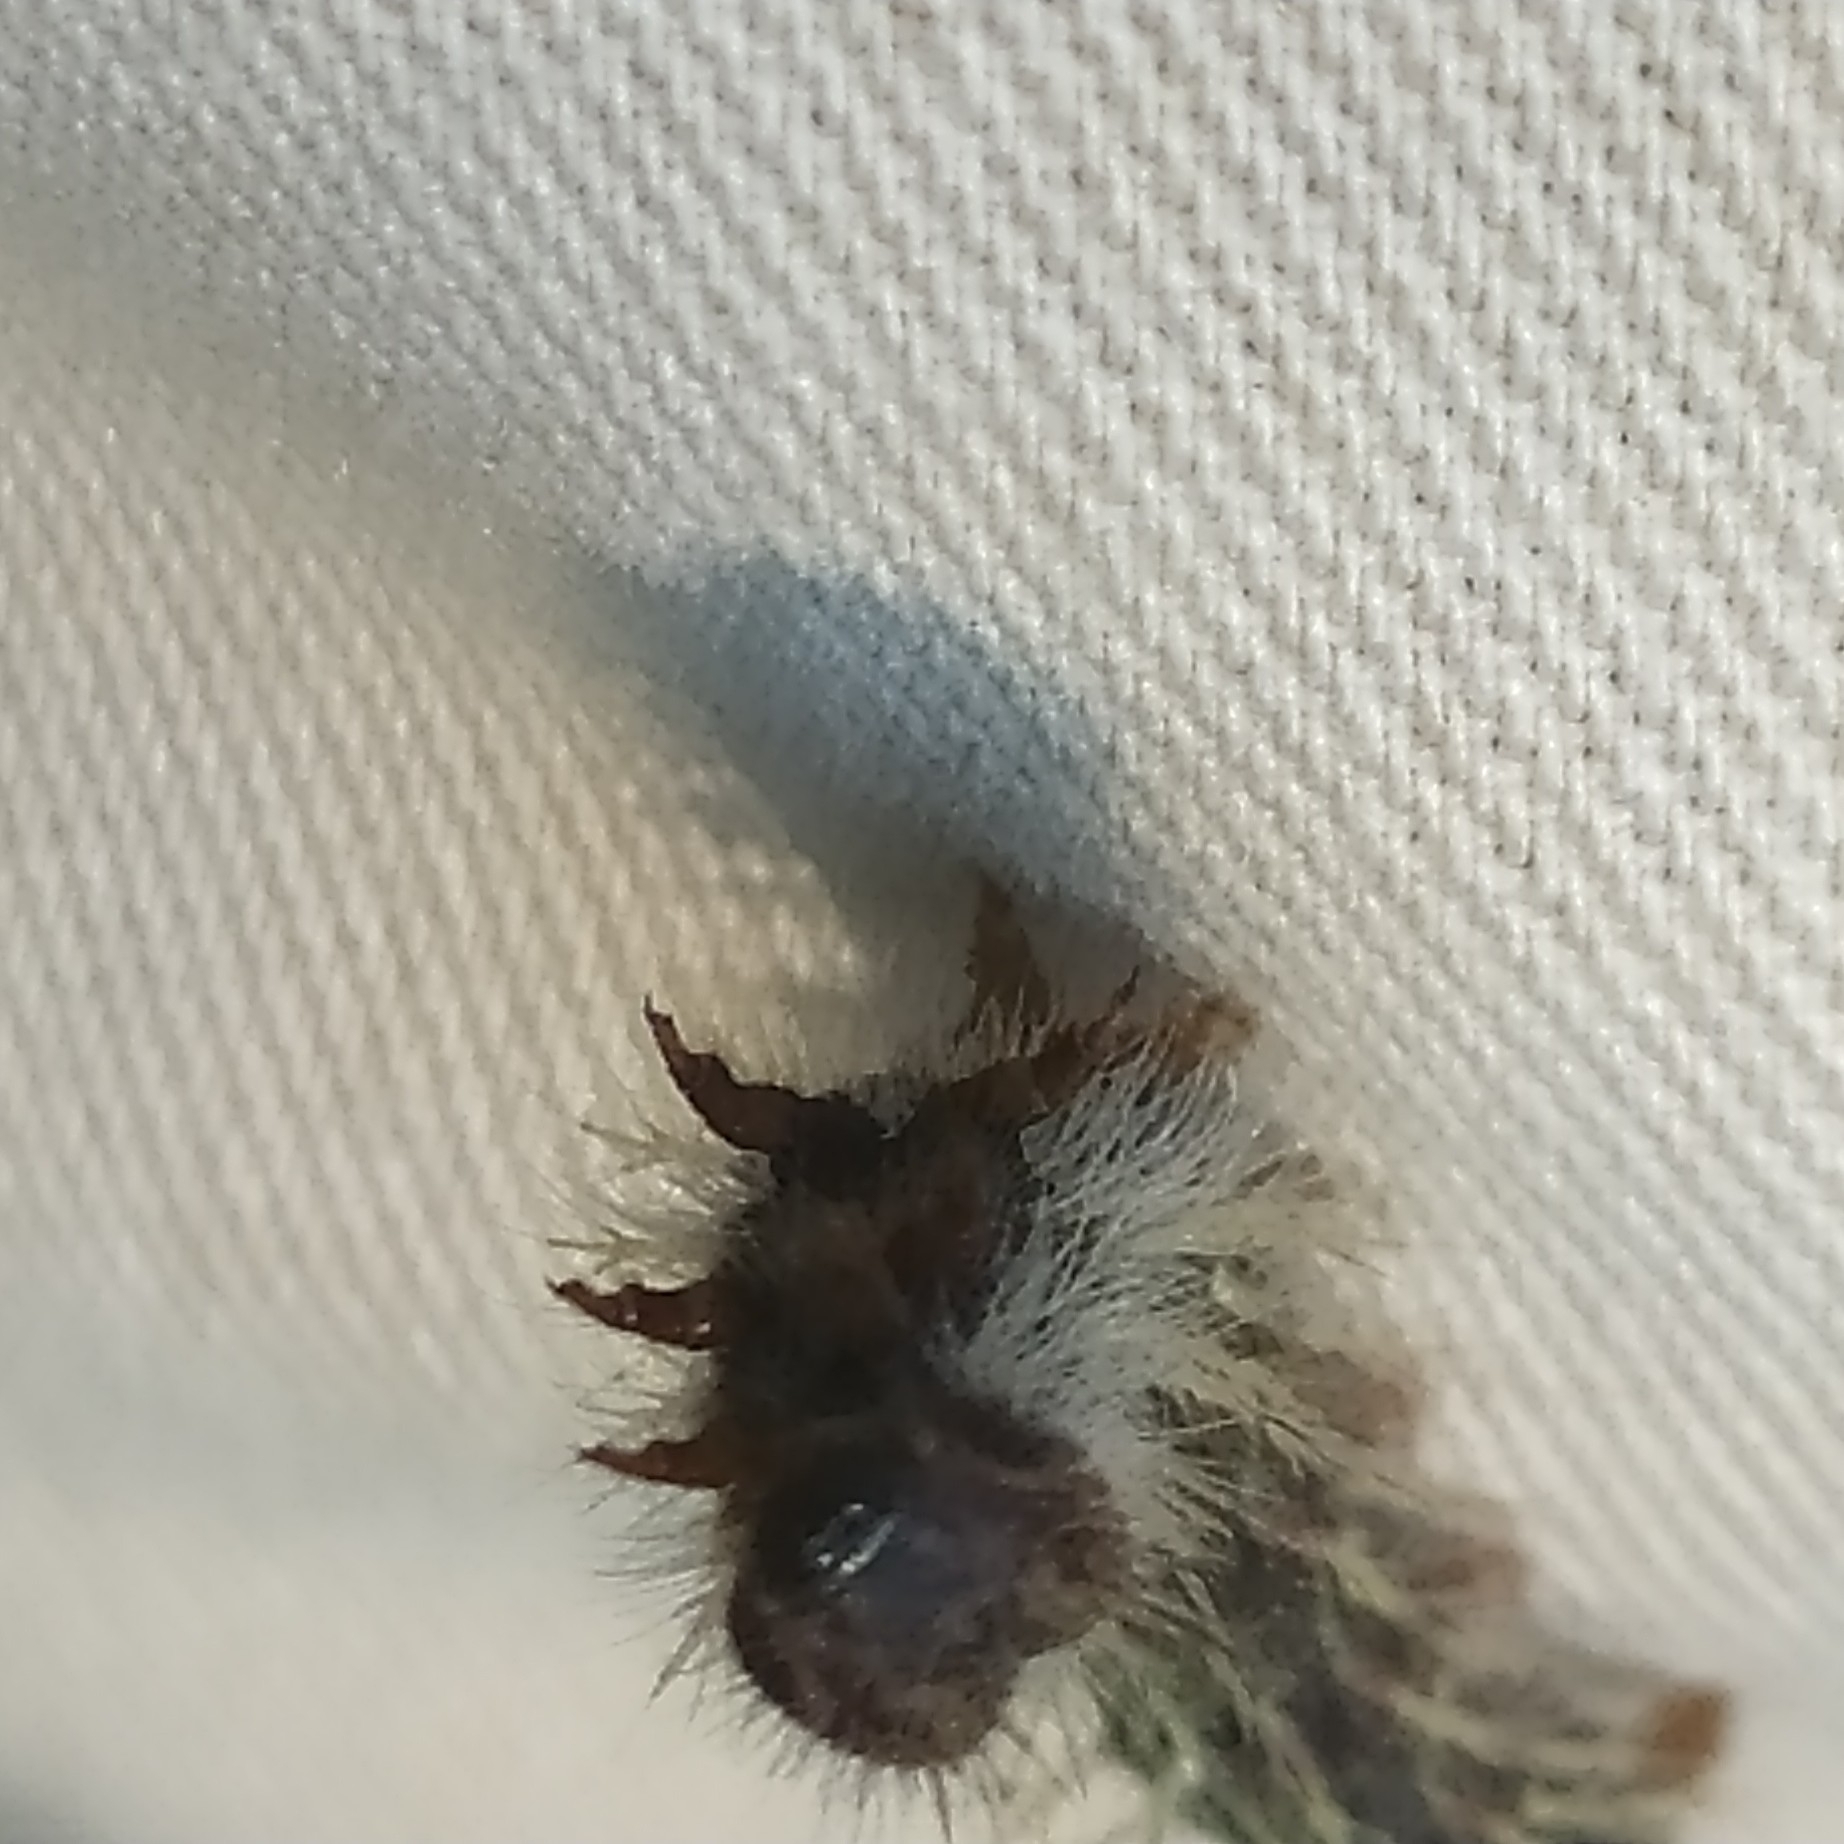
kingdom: Animalia
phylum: Arthropoda
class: Insecta
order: Lepidoptera
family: Nymphalidae
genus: Vanessa
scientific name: Vanessa cardui
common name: Painted lady
